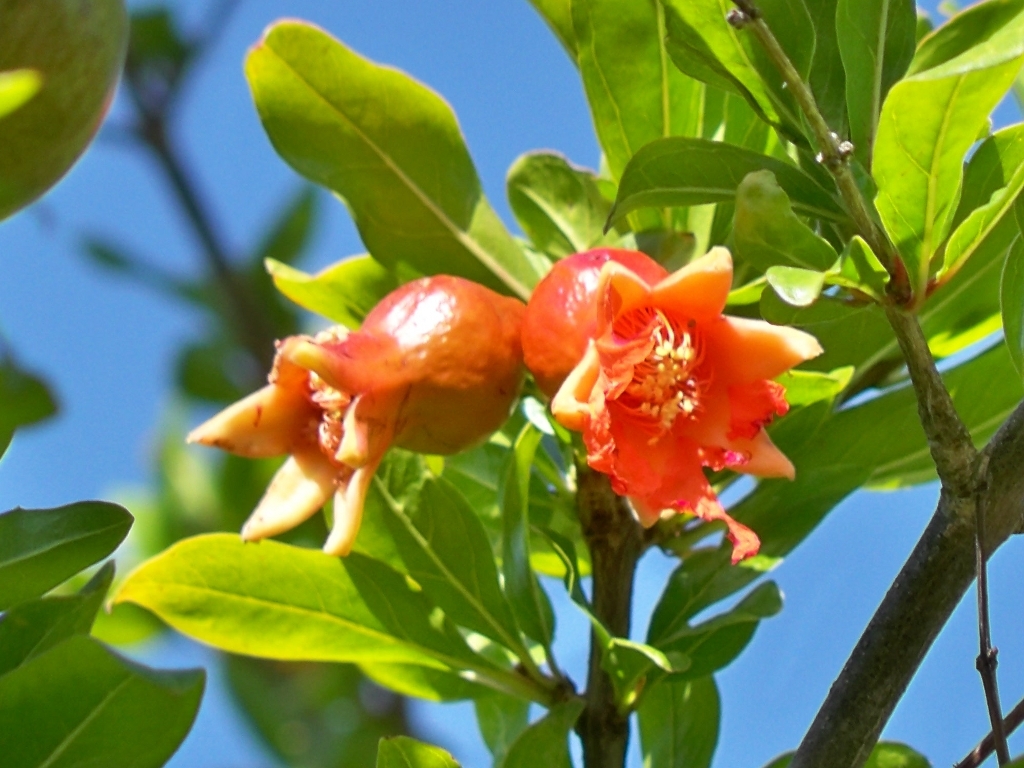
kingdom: Plantae
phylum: Tracheophyta
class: Magnoliopsida
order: Myrtales
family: Lythraceae
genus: Punica
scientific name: Punica granatum
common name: Pomegranate
